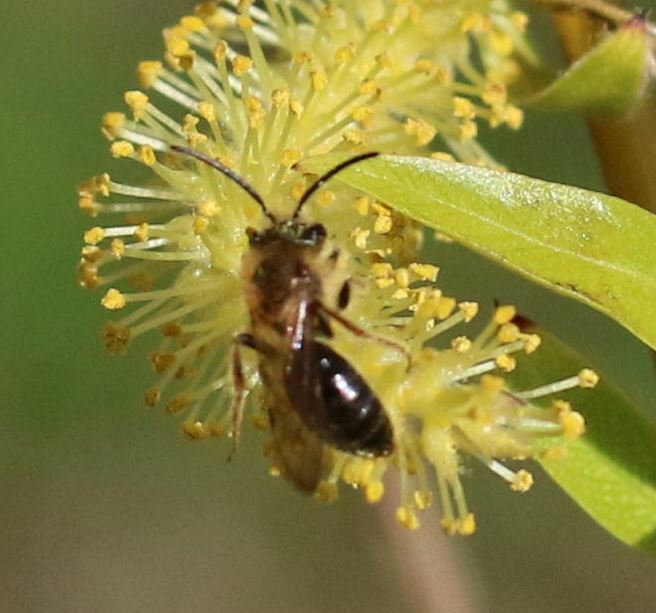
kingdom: Animalia
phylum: Arthropoda
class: Insecta
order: Hymenoptera
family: Andrenidae
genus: Andrena
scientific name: Andrena haemorrhoa
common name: Early mining bee
